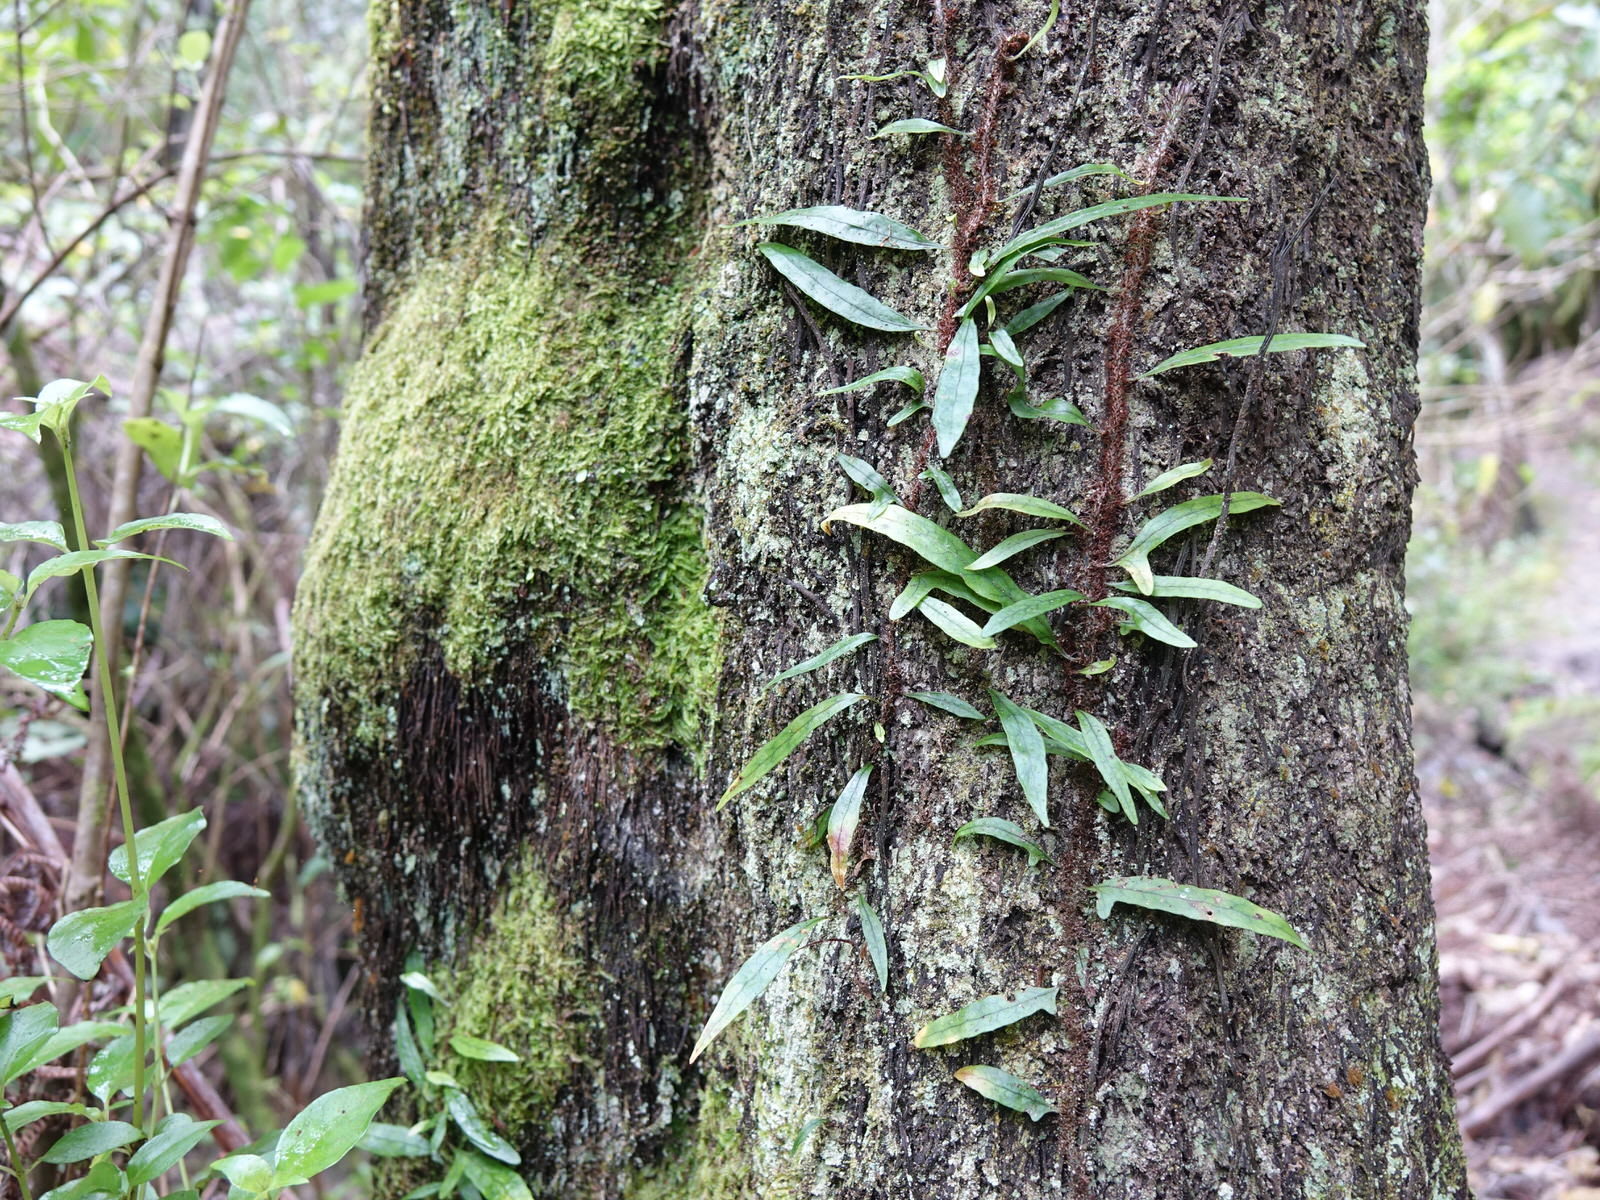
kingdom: Plantae
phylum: Tracheophyta
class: Polypodiopsida
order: Polypodiales
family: Polypodiaceae
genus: Lecanopteris
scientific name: Lecanopteris scandens
